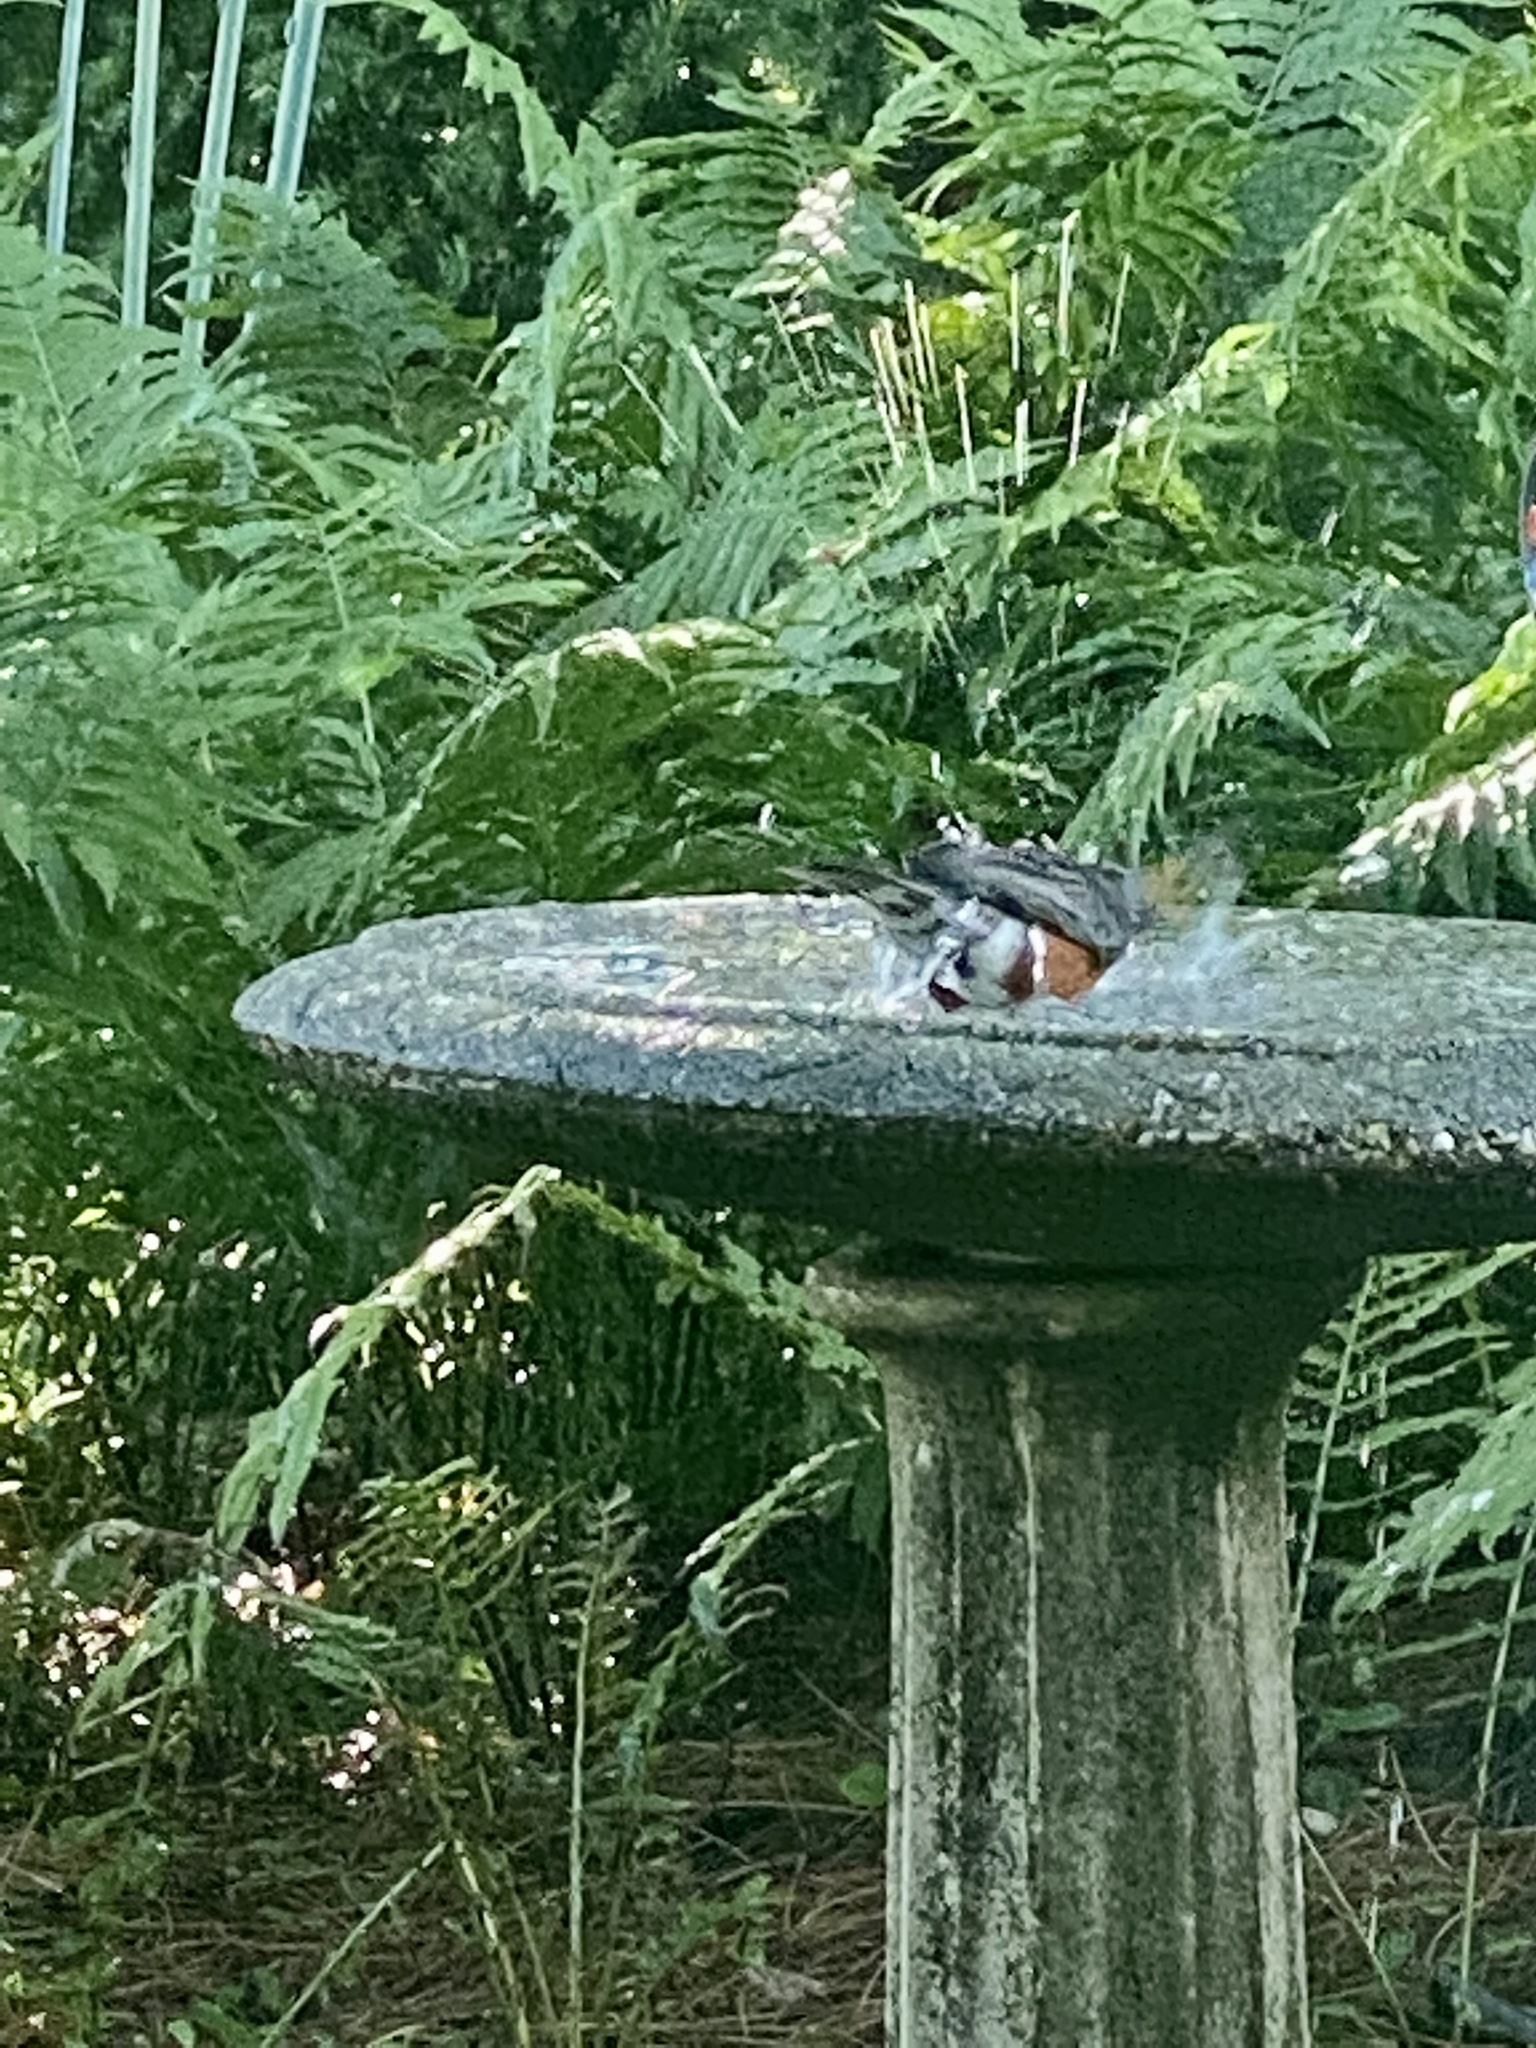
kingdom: Animalia
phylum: Chordata
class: Aves
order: Passeriformes
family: Turdidae
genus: Turdus
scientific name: Turdus migratorius
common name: American robin
